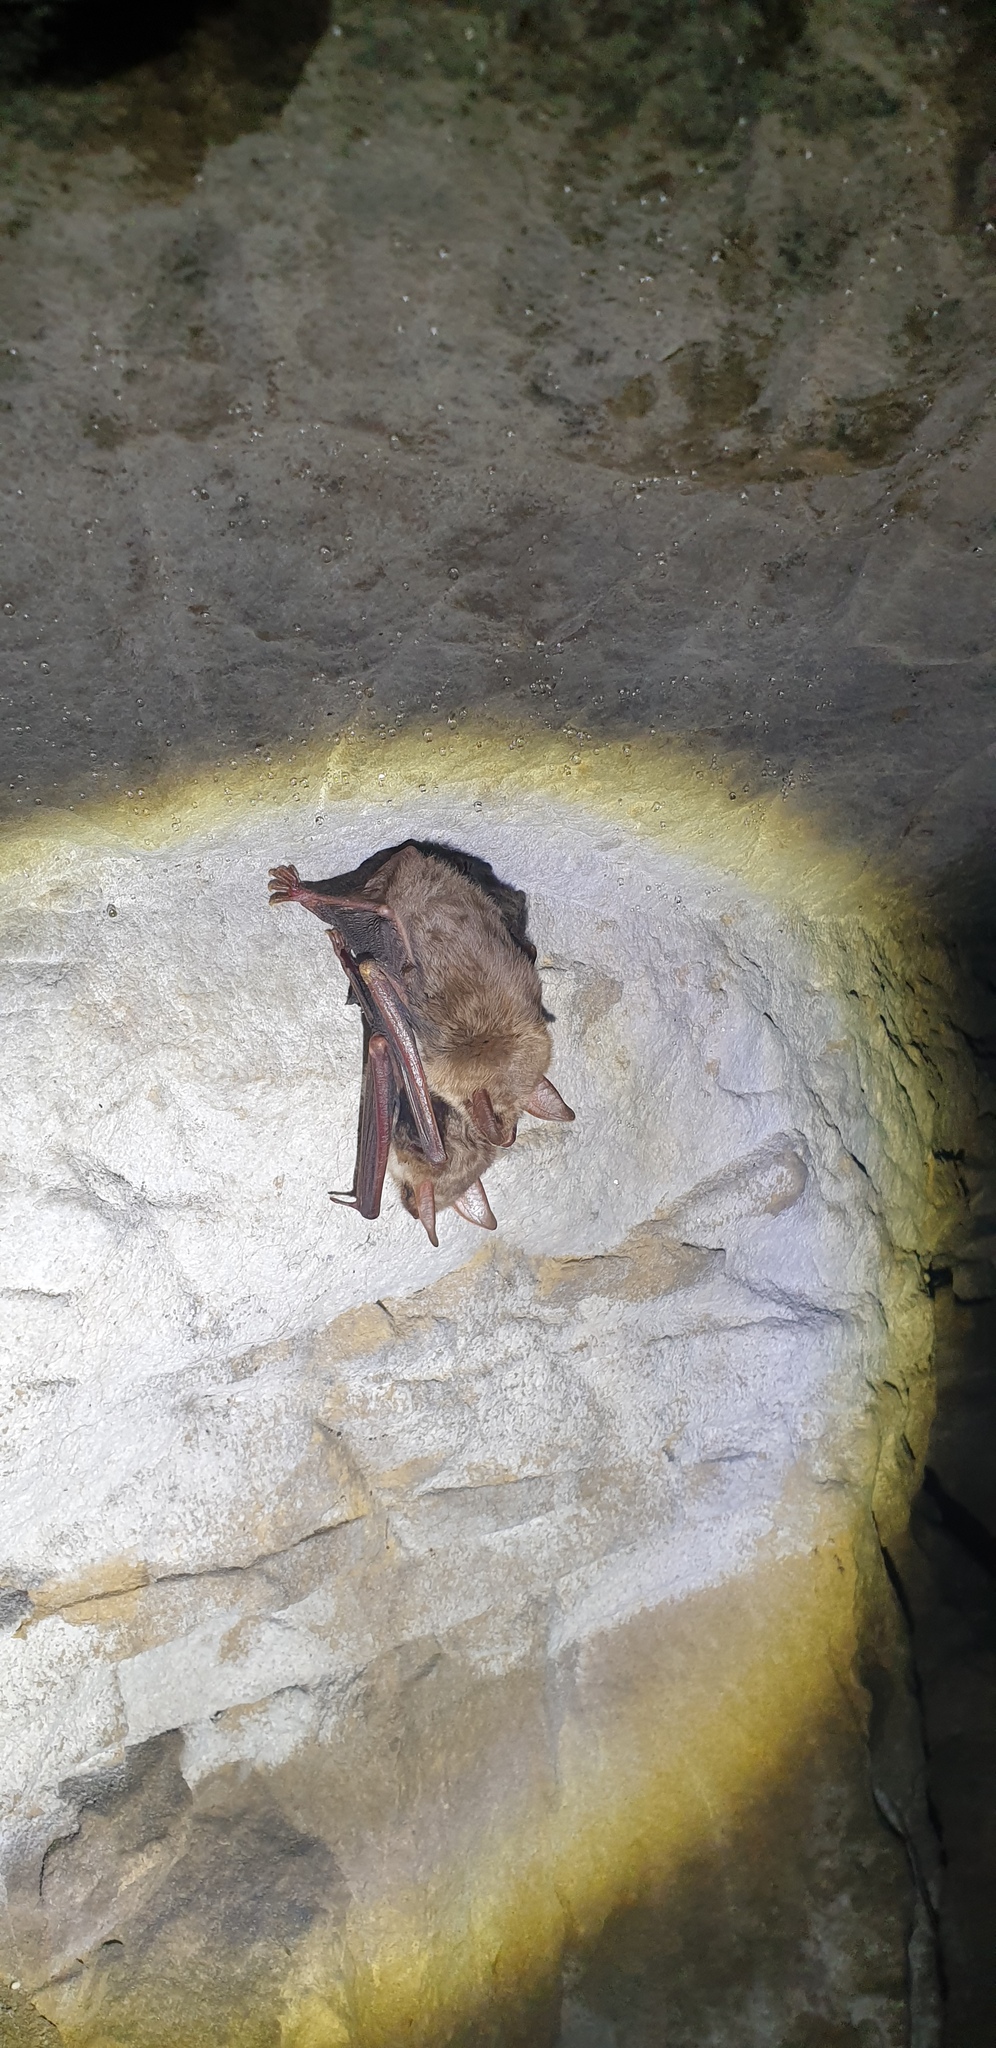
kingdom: Animalia
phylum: Chordata
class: Mammalia
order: Chiroptera
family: Vespertilionidae
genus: Myotis
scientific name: Myotis myotis
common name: Greater mouse-eared bat
